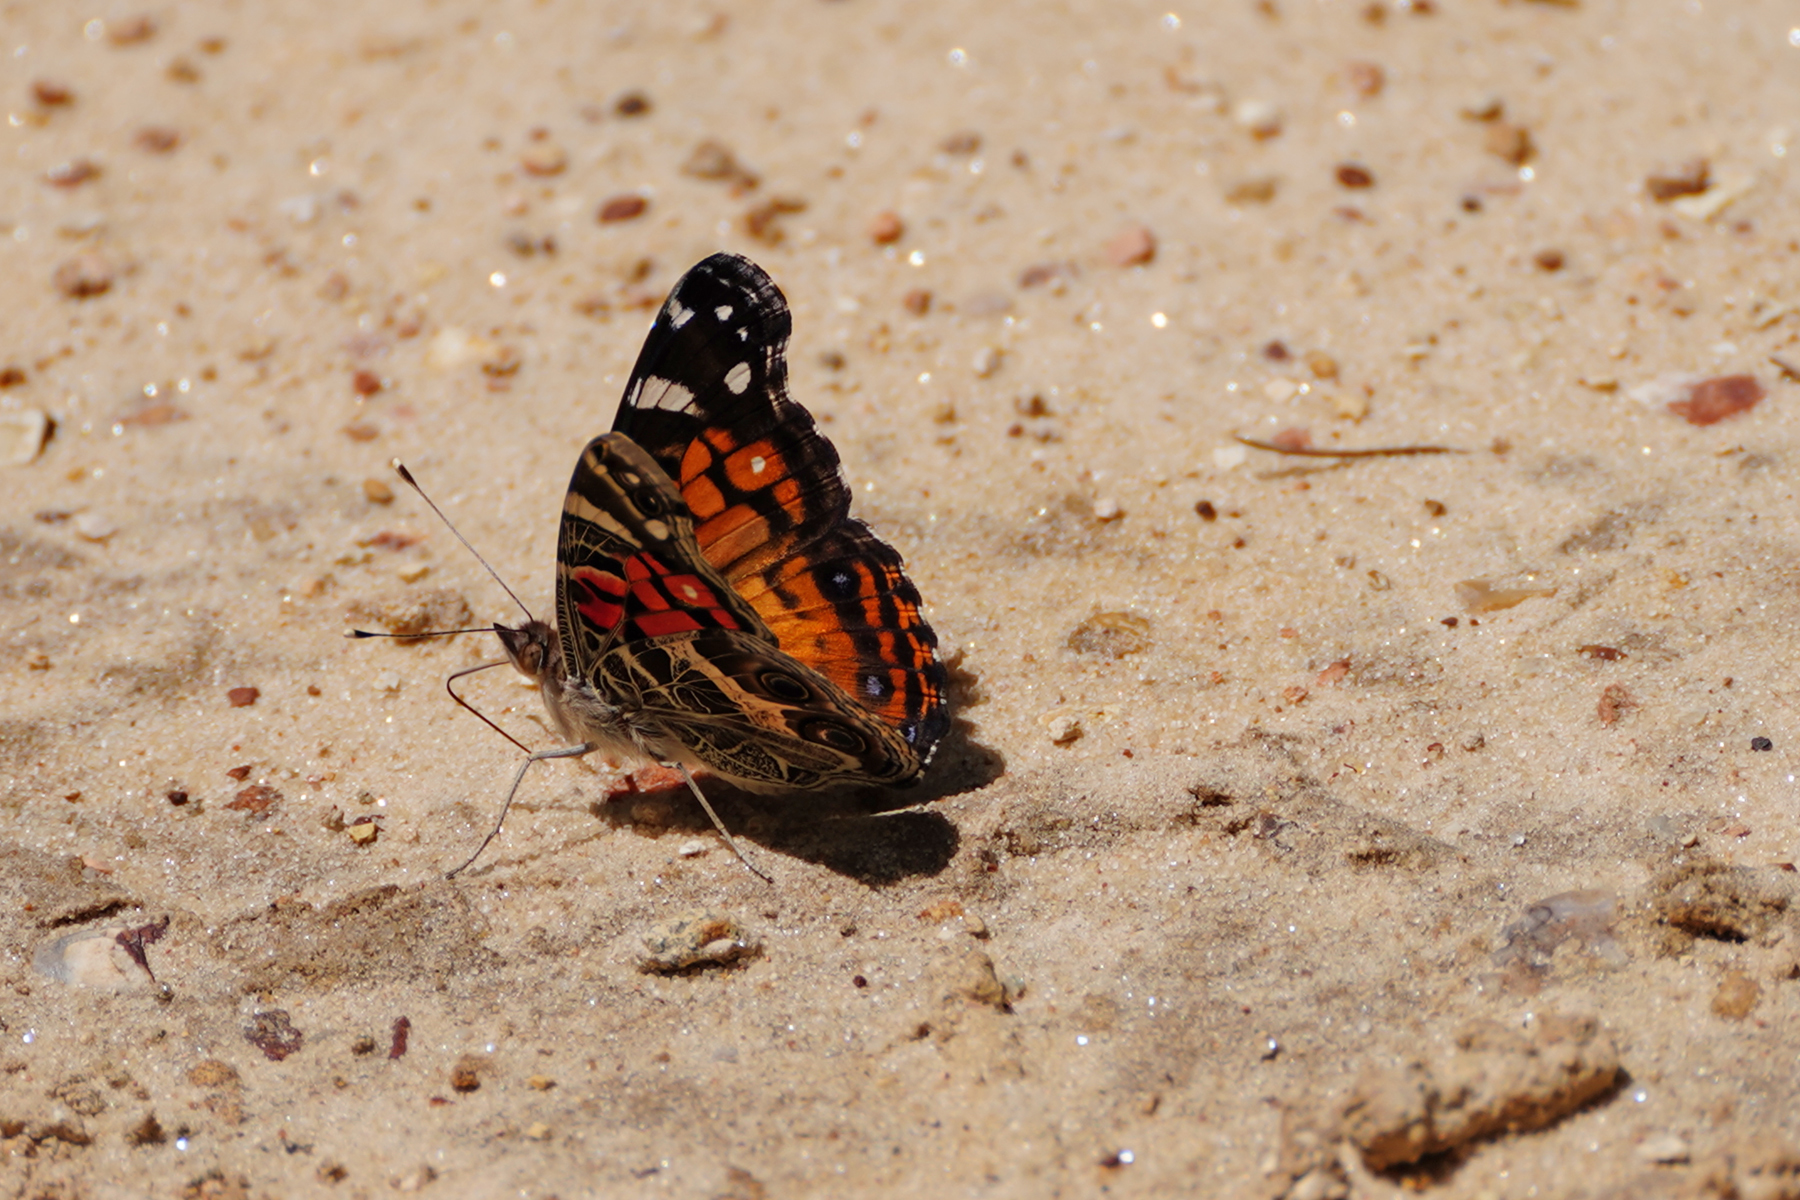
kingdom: Animalia
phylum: Arthropoda
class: Insecta
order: Lepidoptera
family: Nymphalidae
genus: Vanessa
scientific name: Vanessa virginiensis
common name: American lady
